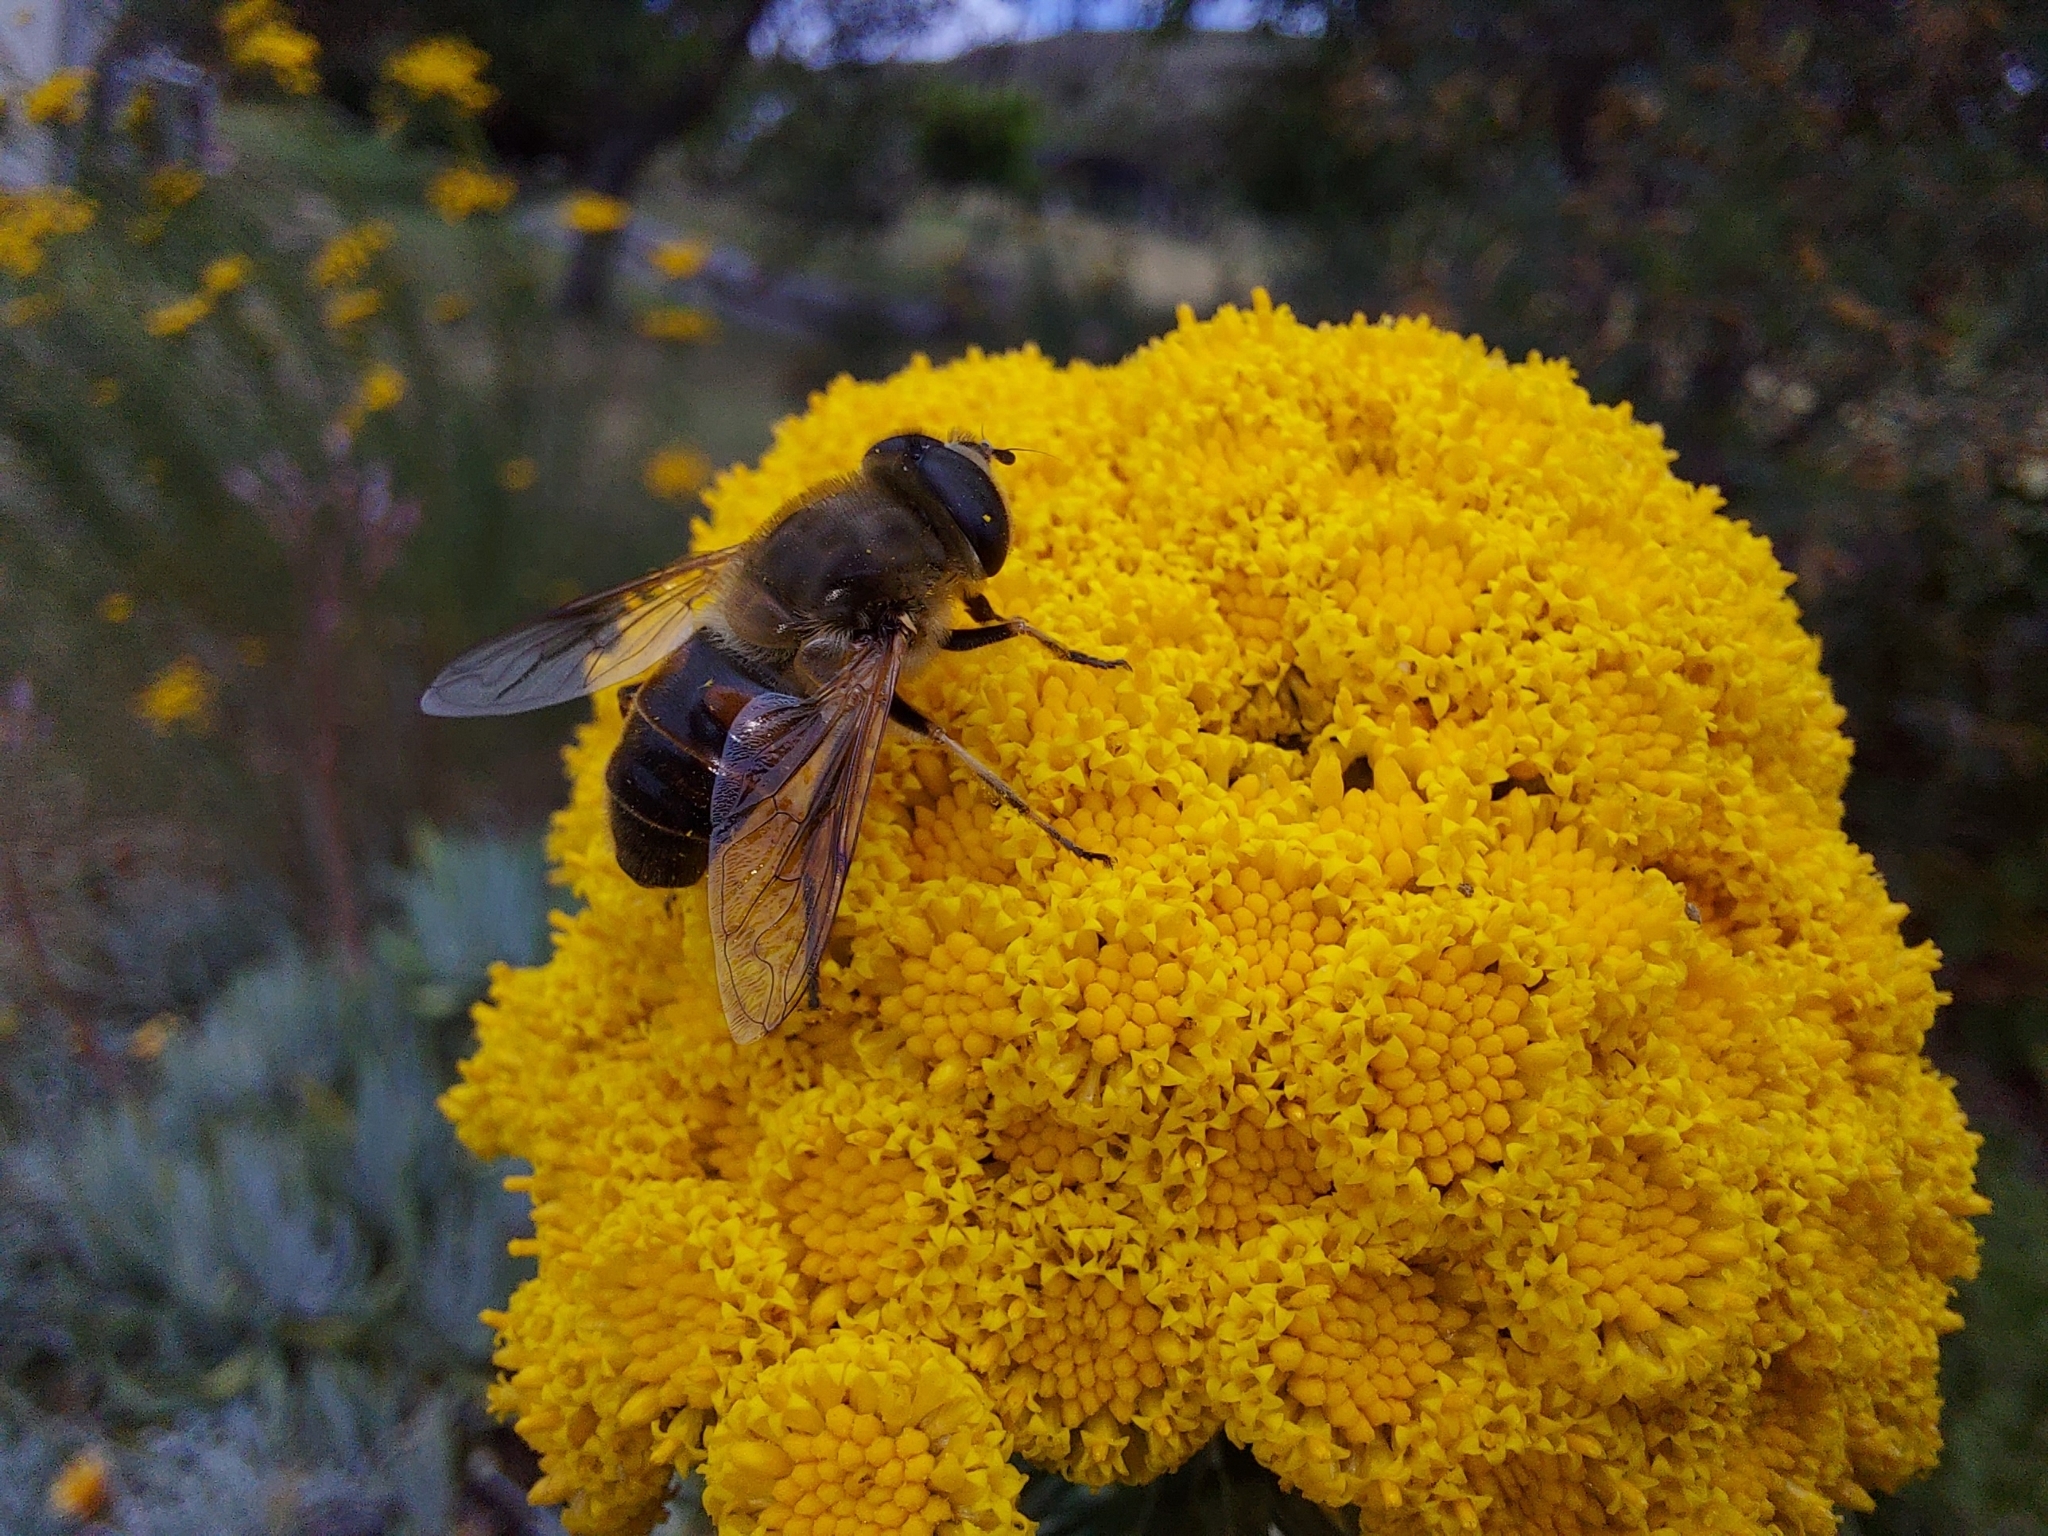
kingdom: Animalia
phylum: Arthropoda
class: Insecta
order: Diptera
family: Syrphidae
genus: Eristalis
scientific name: Eristalis tenax
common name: Drone fly
